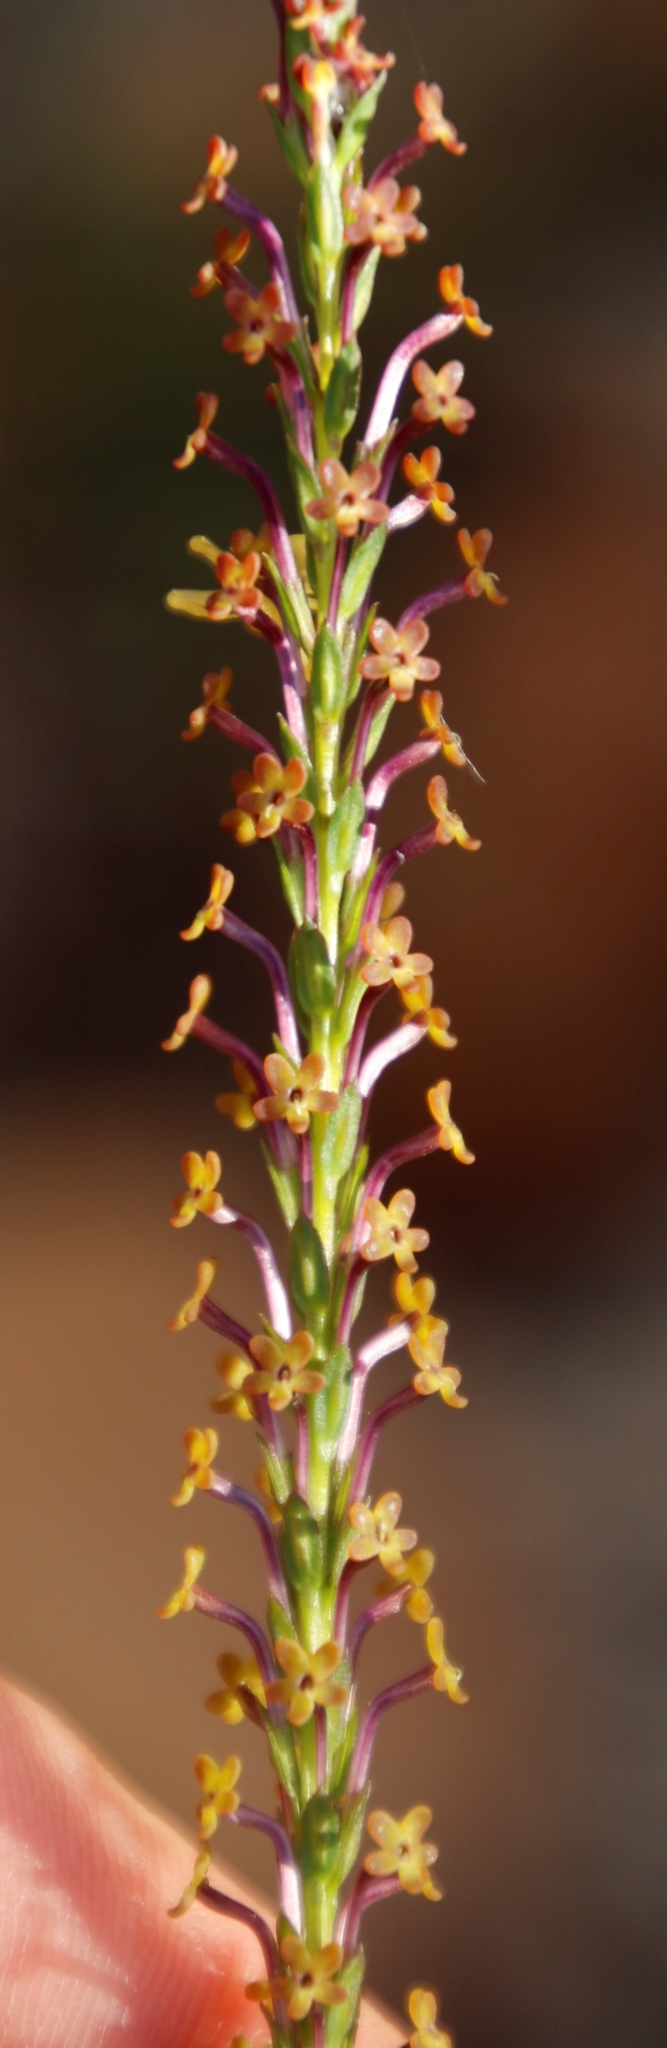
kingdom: Plantae
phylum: Tracheophyta
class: Magnoliopsida
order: Lamiales
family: Scrophulariaceae
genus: Microdon
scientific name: Microdon dubius
